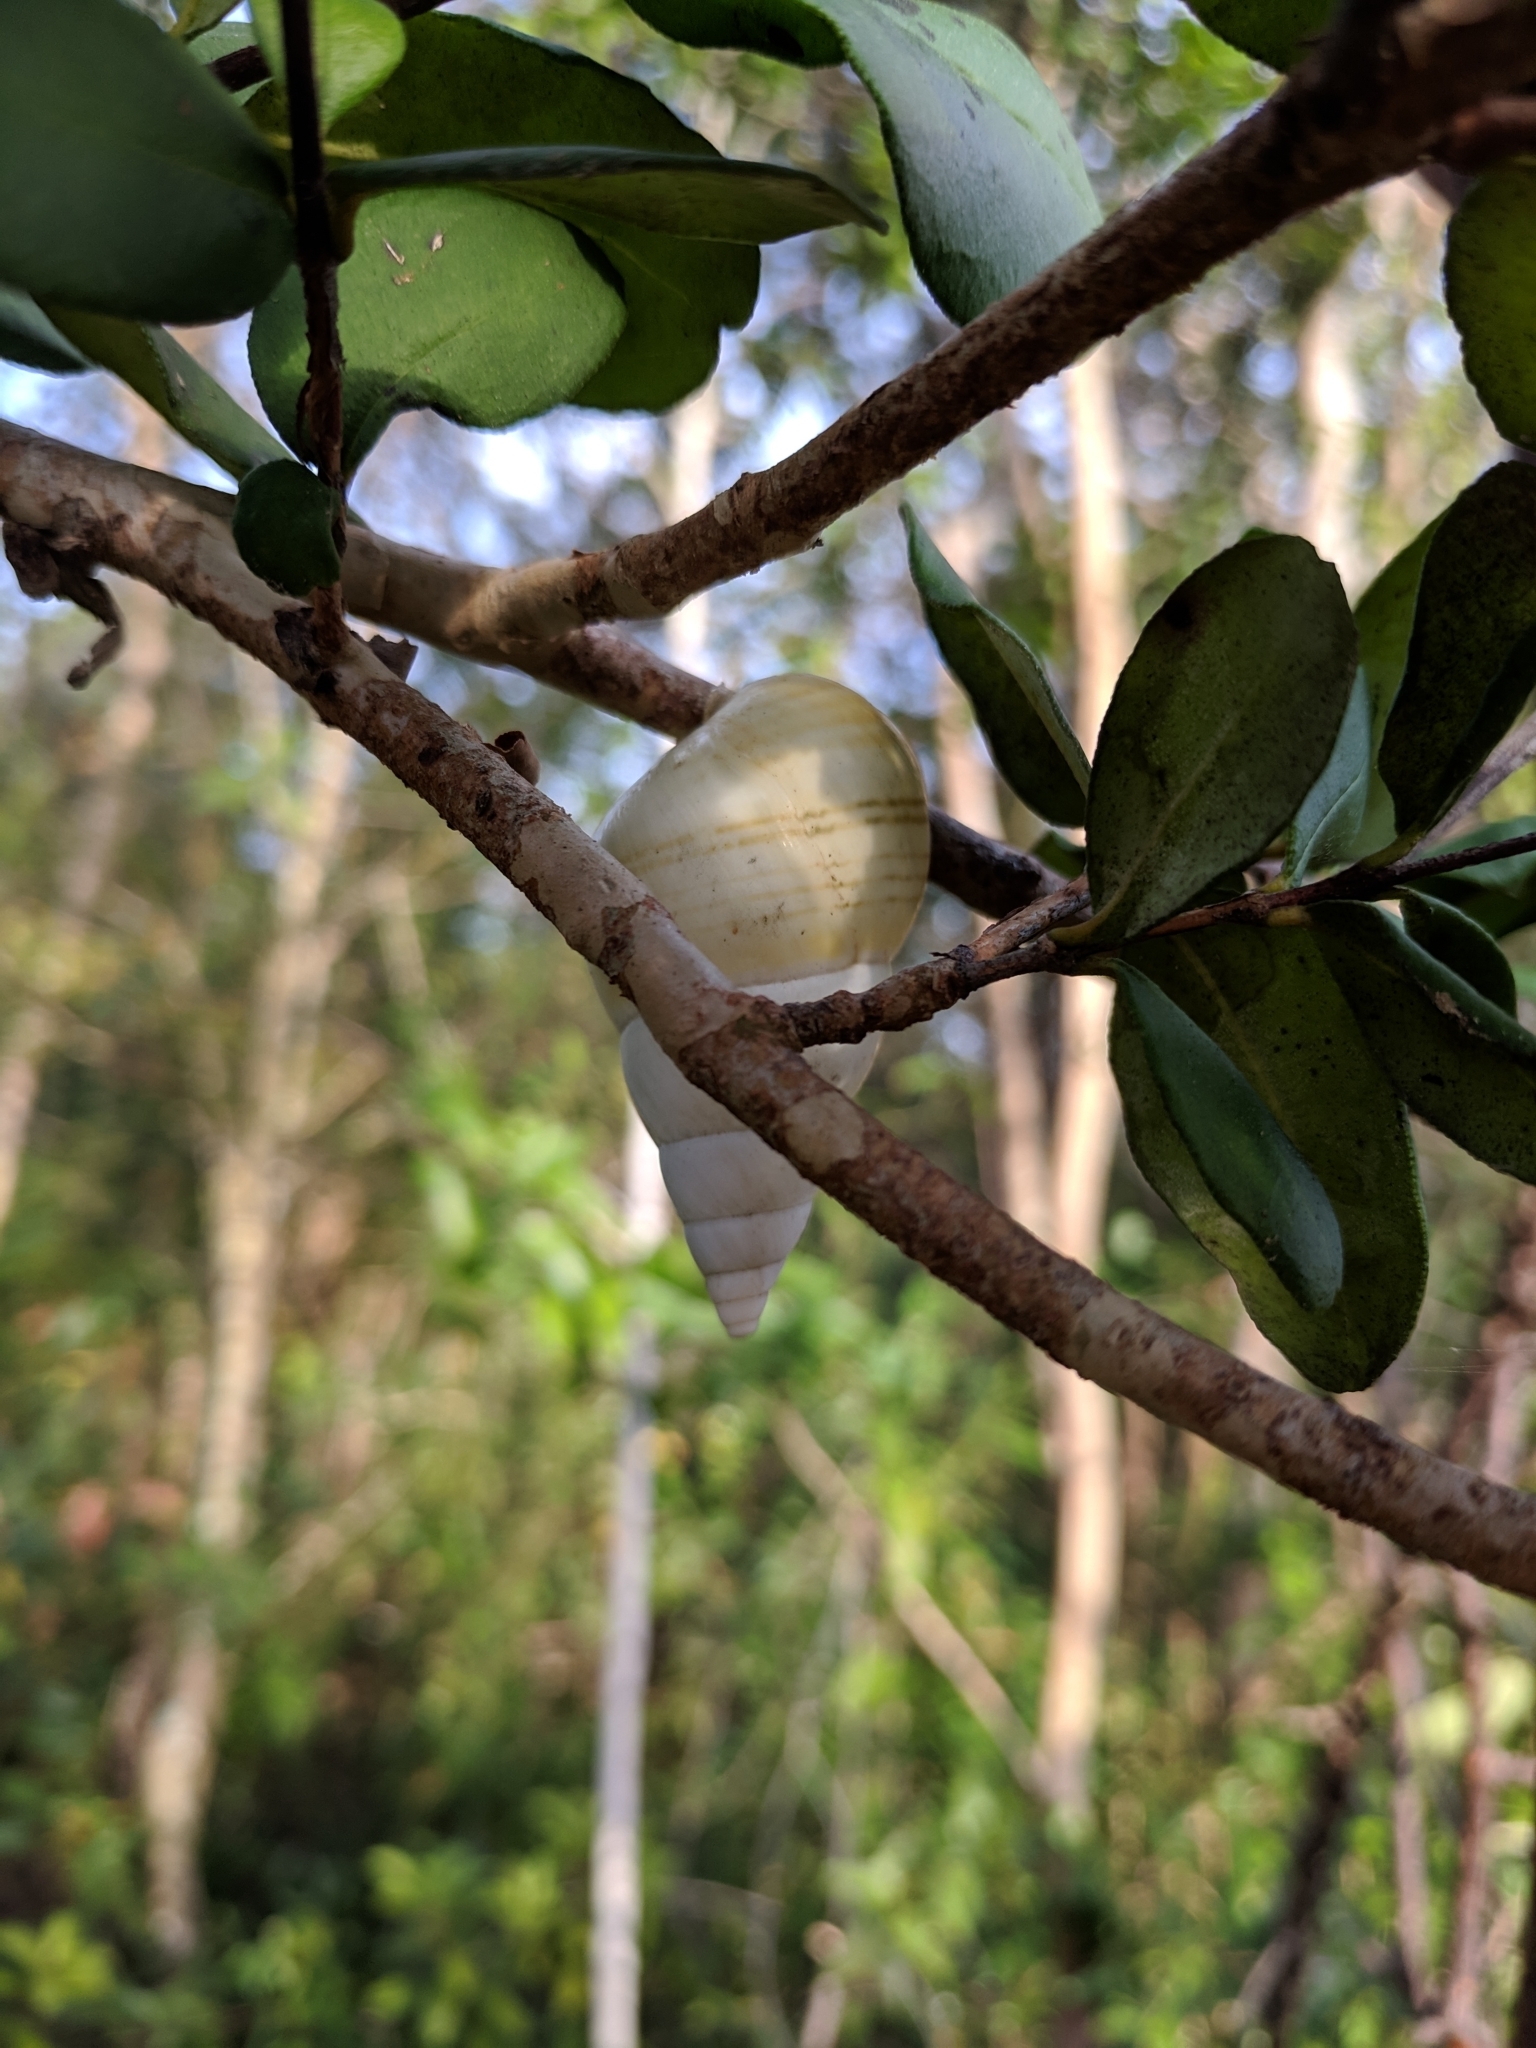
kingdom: Animalia
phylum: Mollusca
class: Gastropoda
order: Stylommatophora
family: Orthalicidae
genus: Liguus
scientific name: Liguus fasciatus
